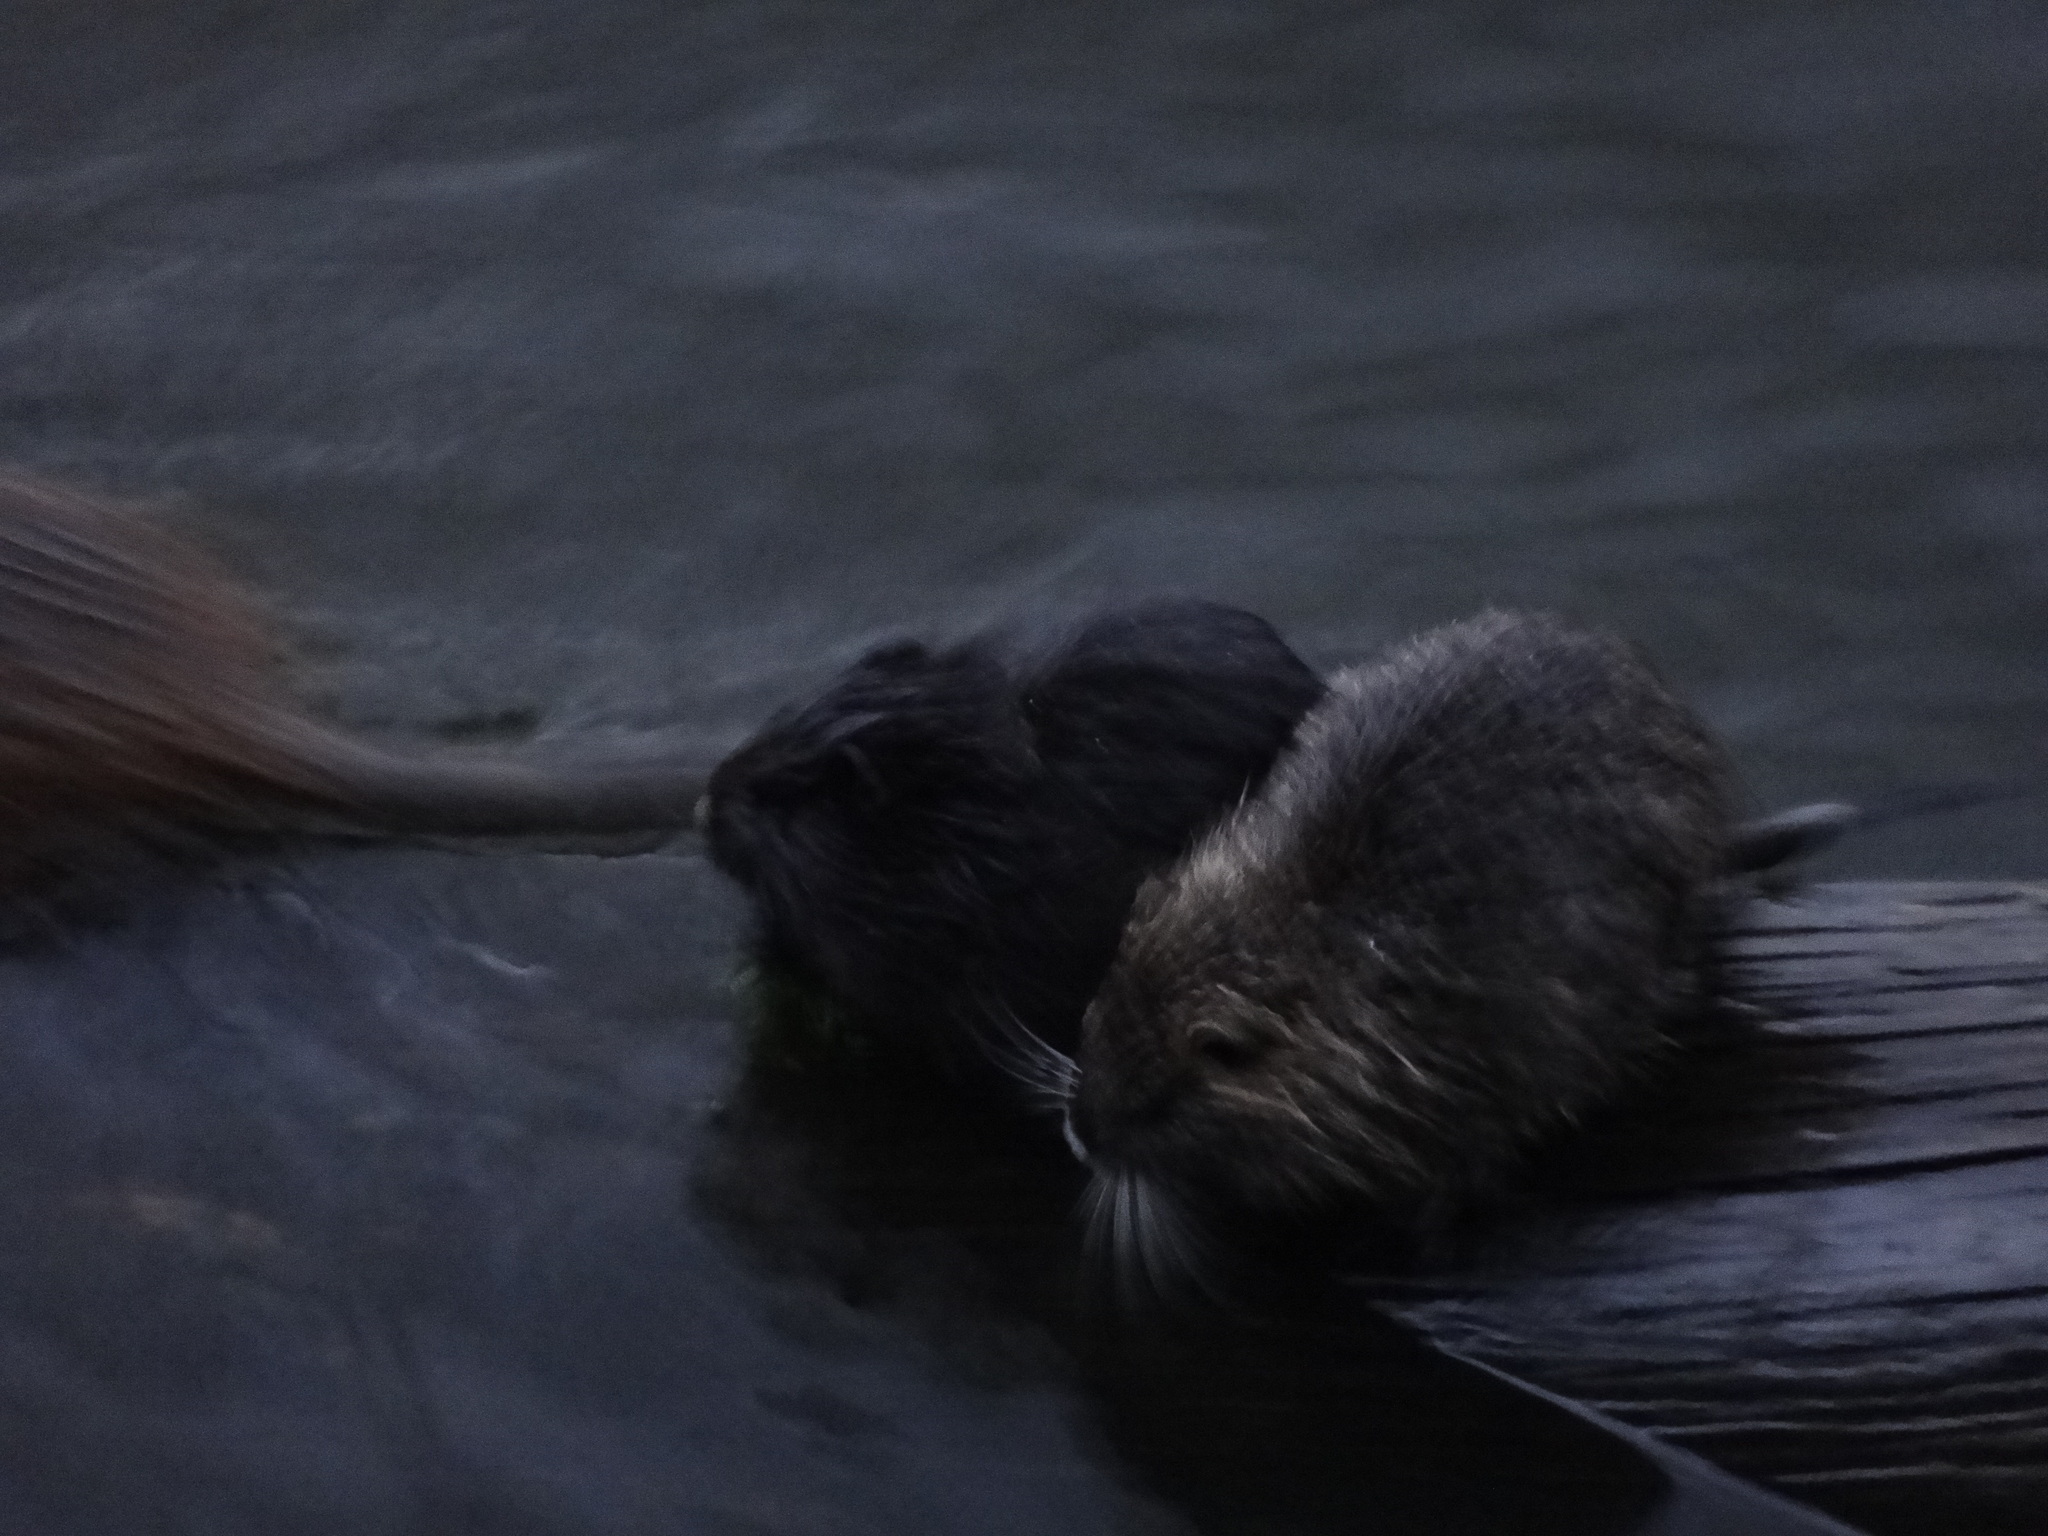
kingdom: Animalia
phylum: Chordata
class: Mammalia
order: Rodentia
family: Myocastoridae
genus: Myocastor
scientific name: Myocastor coypus
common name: Coypu
